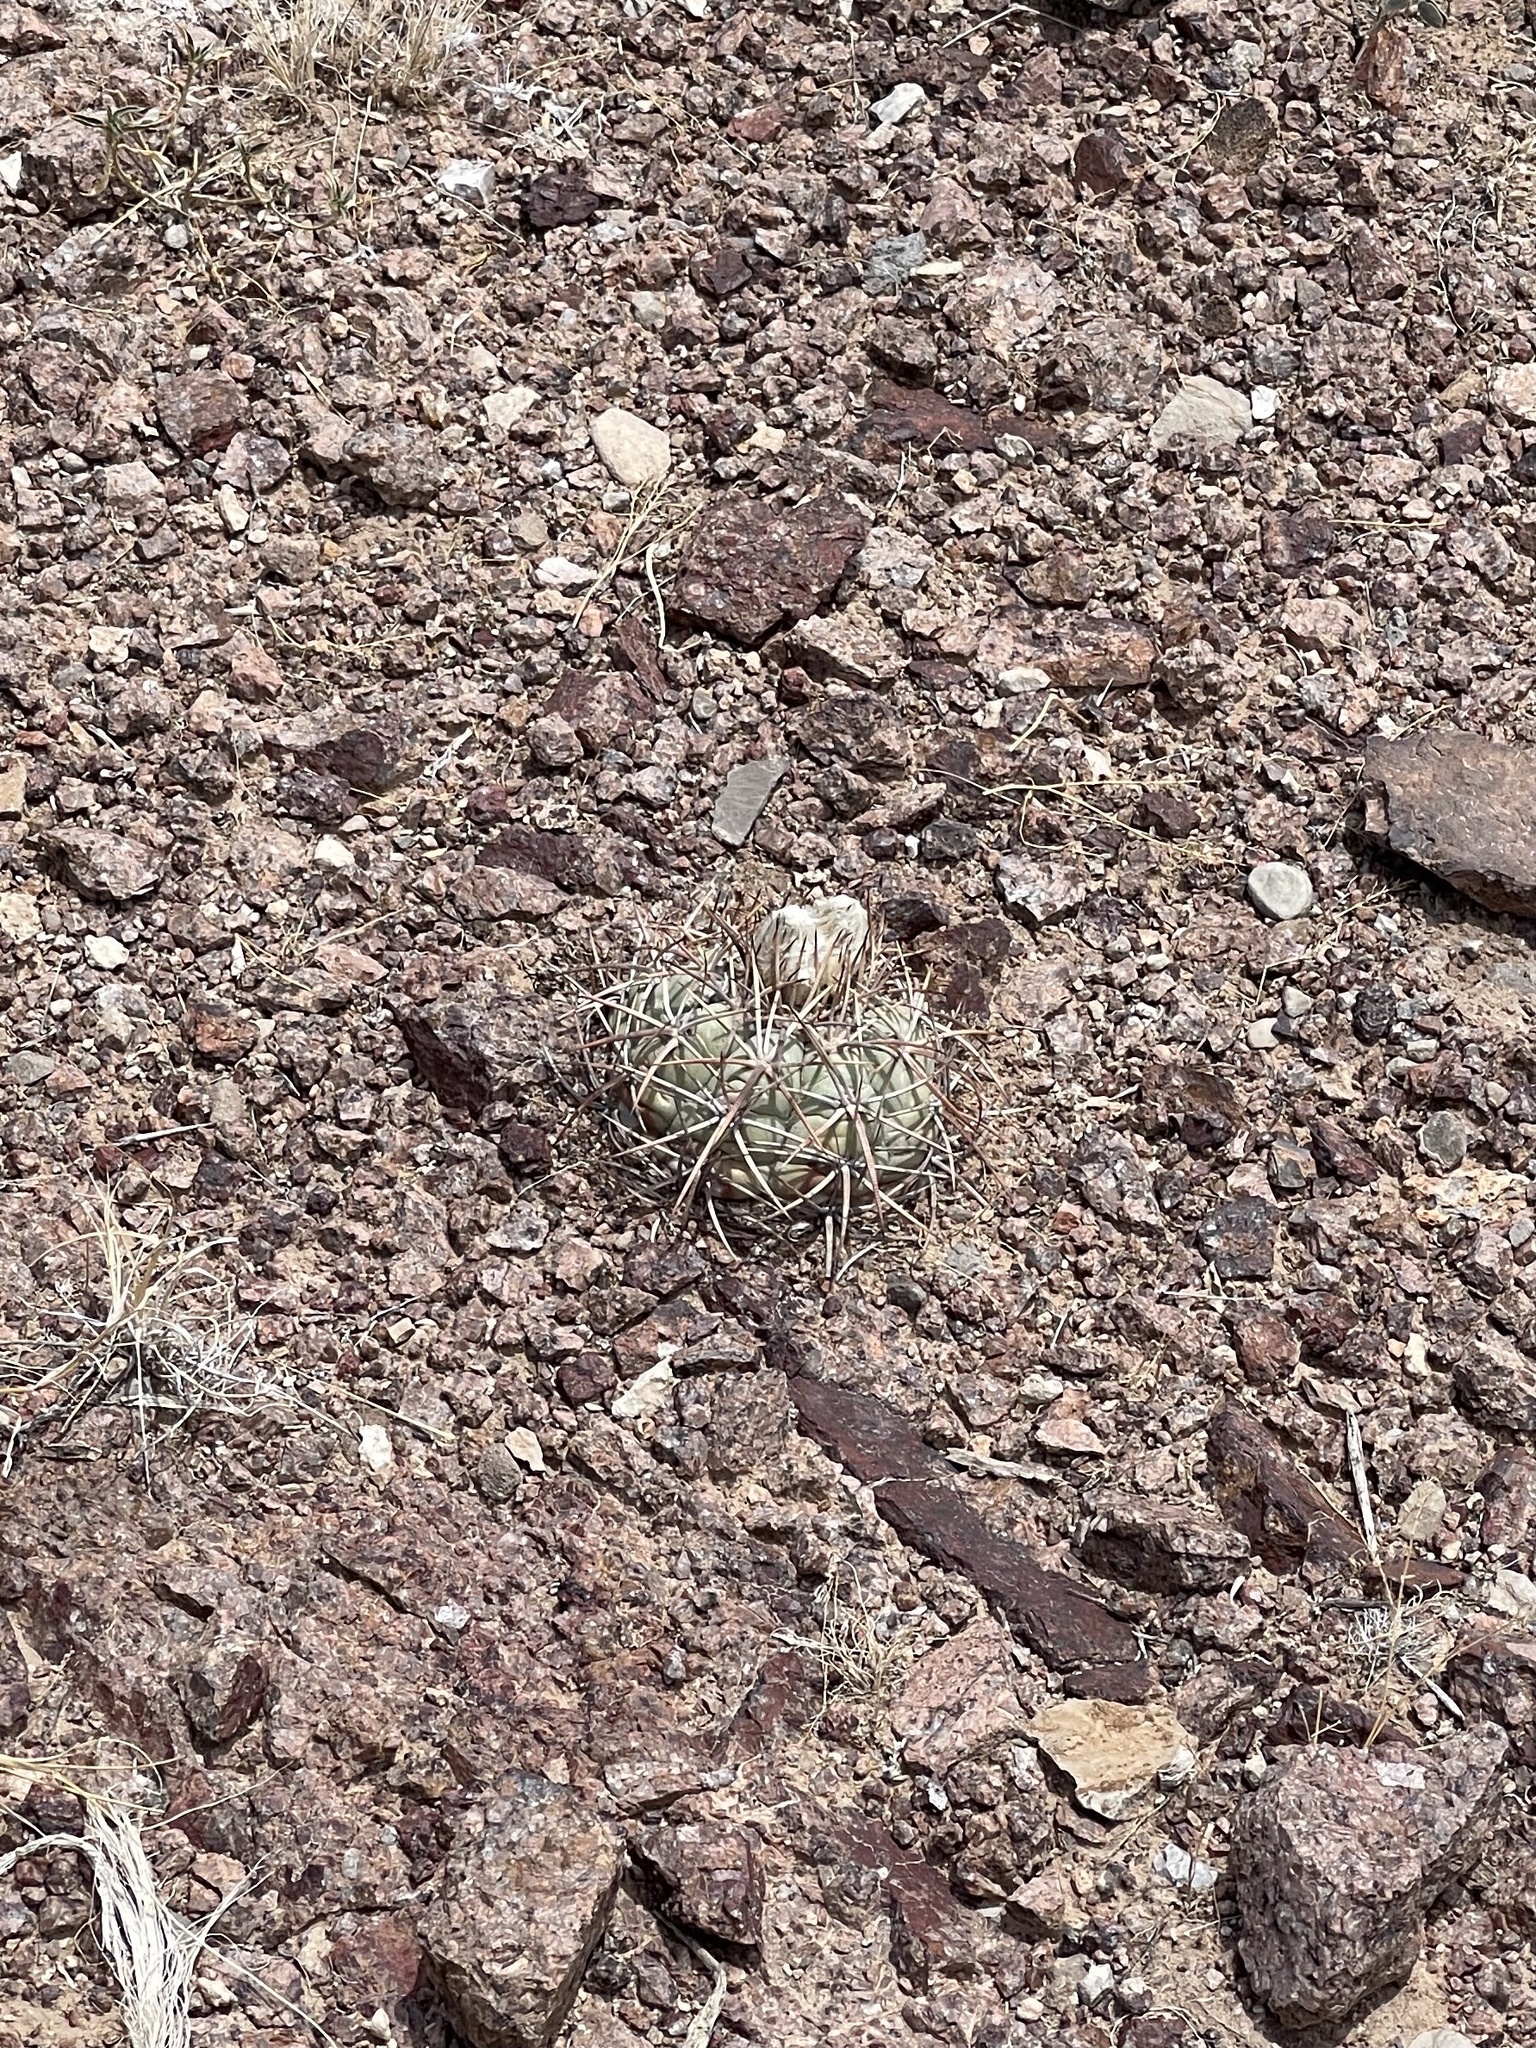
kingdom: Plantae
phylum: Tracheophyta
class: Magnoliopsida
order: Caryophyllales
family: Cactaceae
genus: Echinocactus
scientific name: Echinocactus horizonthalonius
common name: Devilshead
